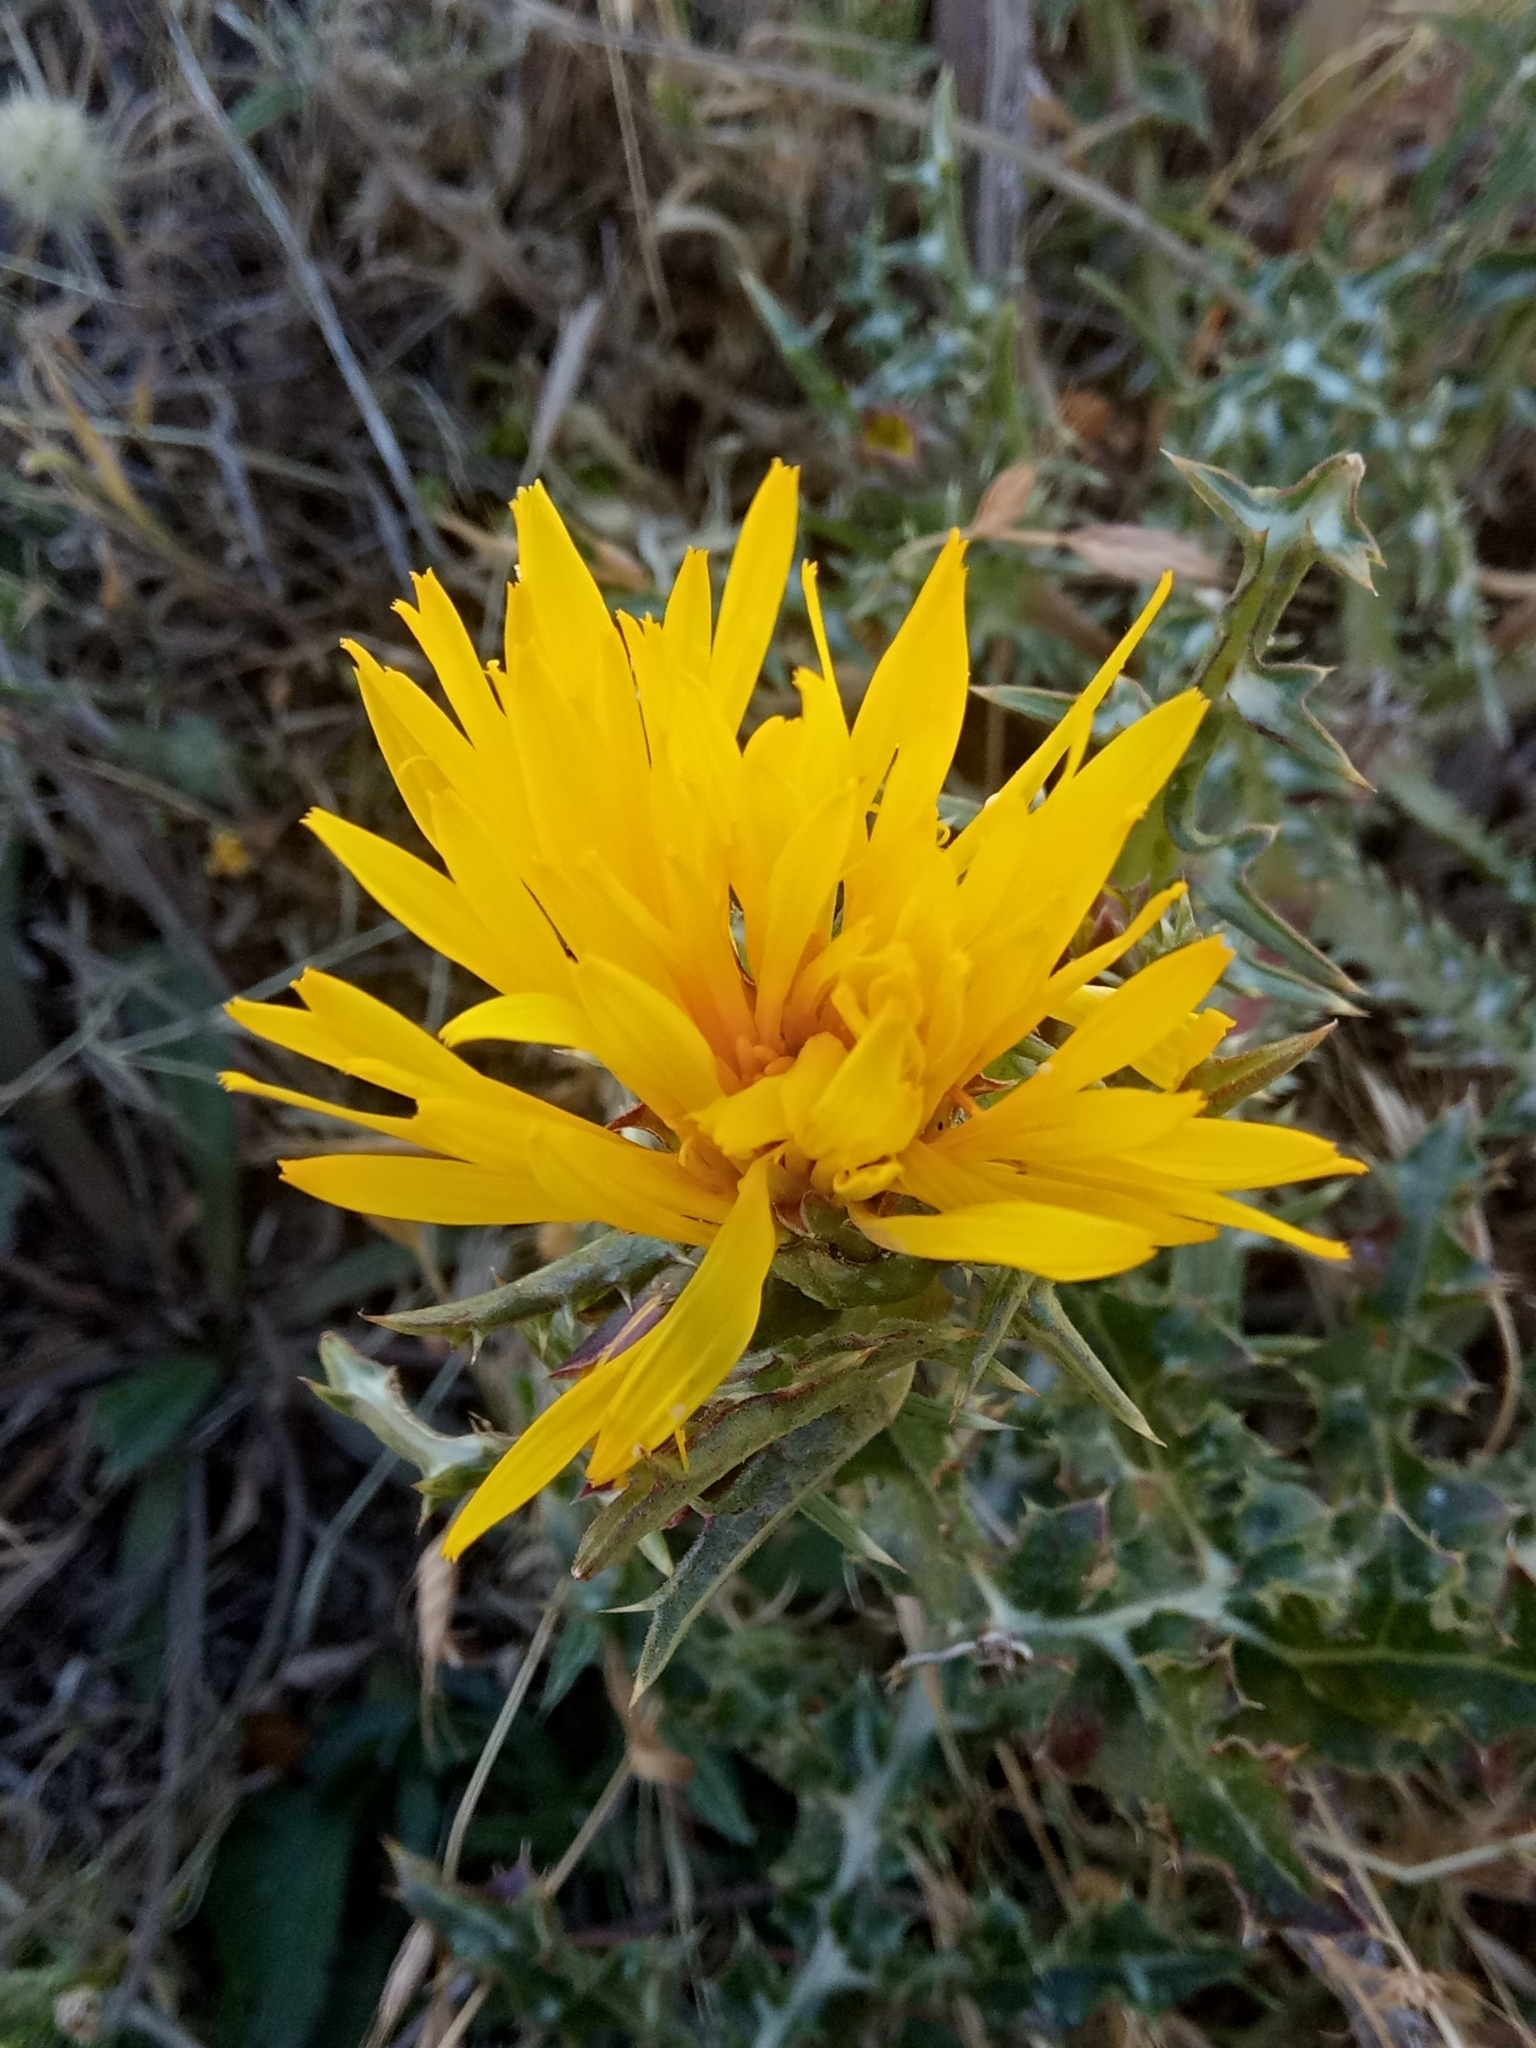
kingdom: Plantae
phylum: Tracheophyta
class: Magnoliopsida
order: Asterales
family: Asteraceae
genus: Scolymus
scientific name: Scolymus grandiflorus
